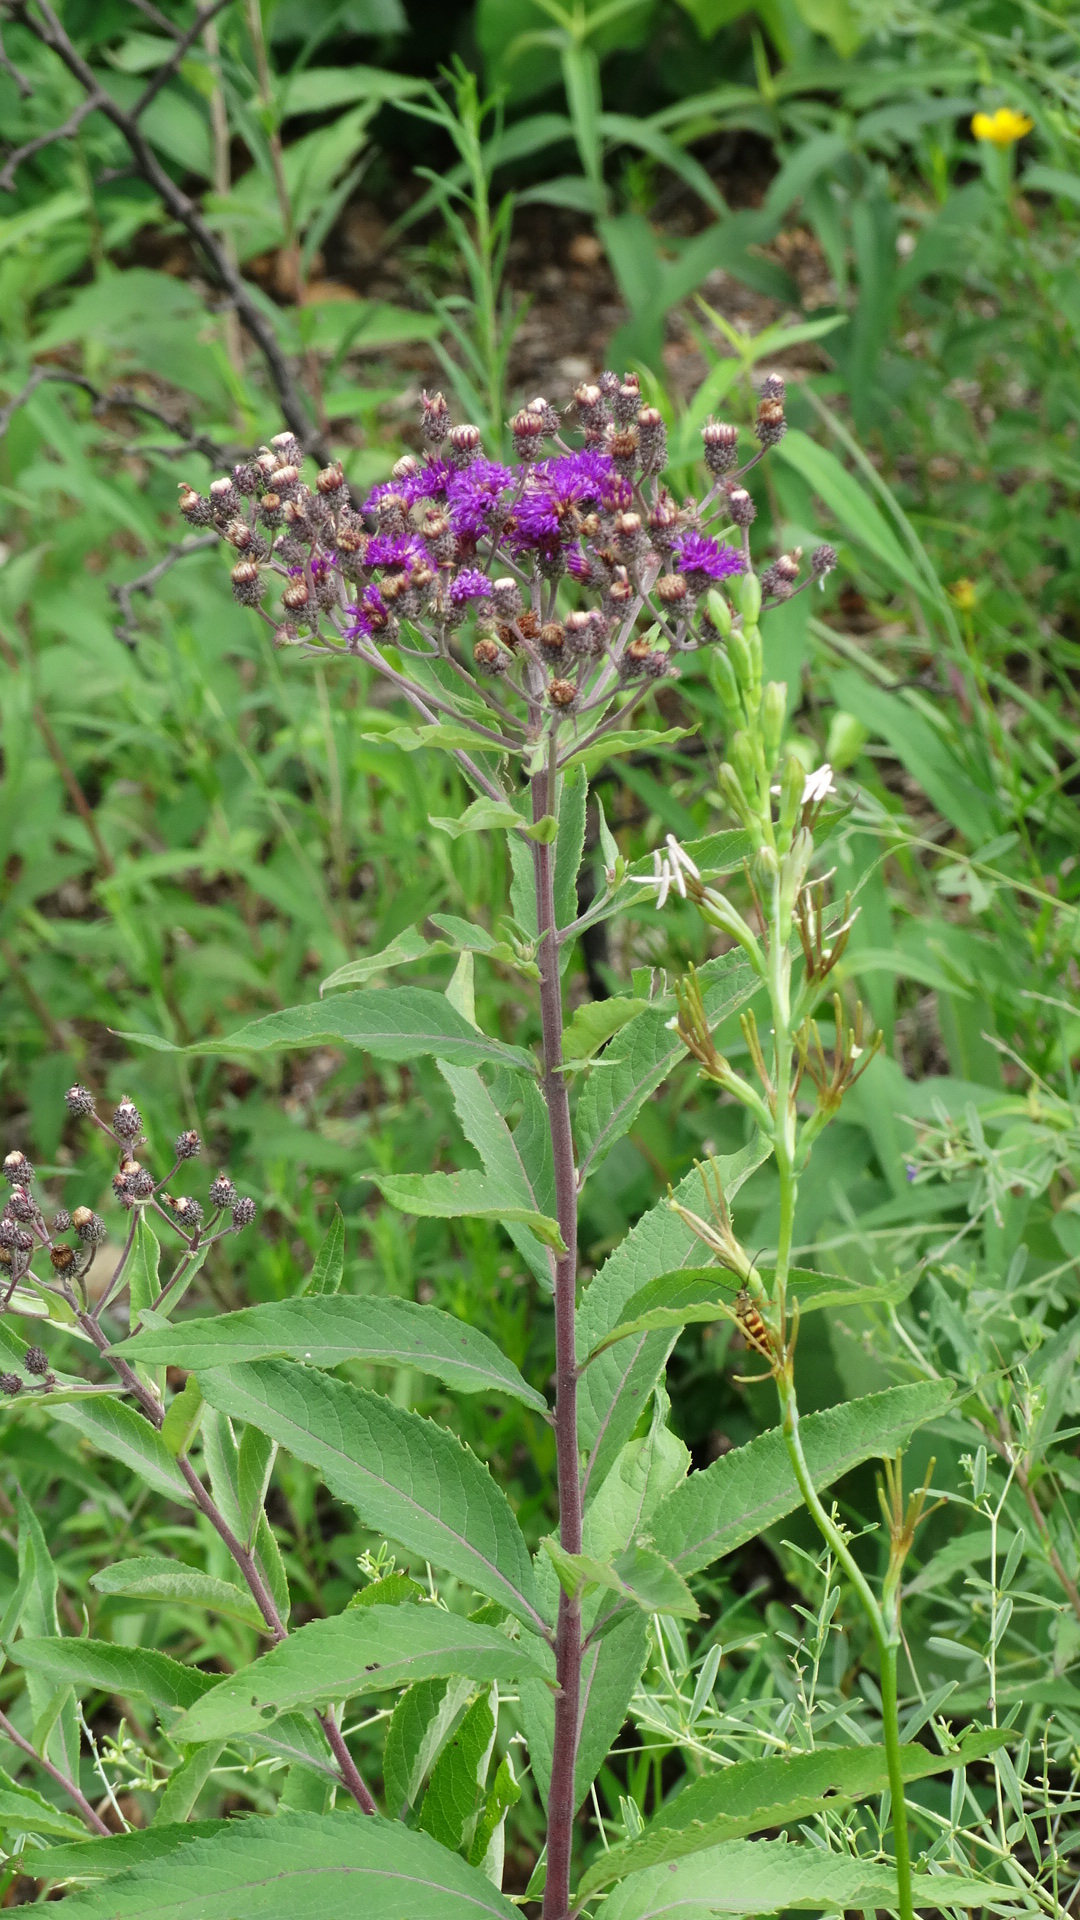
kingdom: Plantae
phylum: Tracheophyta
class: Magnoliopsida
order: Asterales
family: Asteraceae
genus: Vernonia
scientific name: Vernonia missurica
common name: Missouri ironweed
